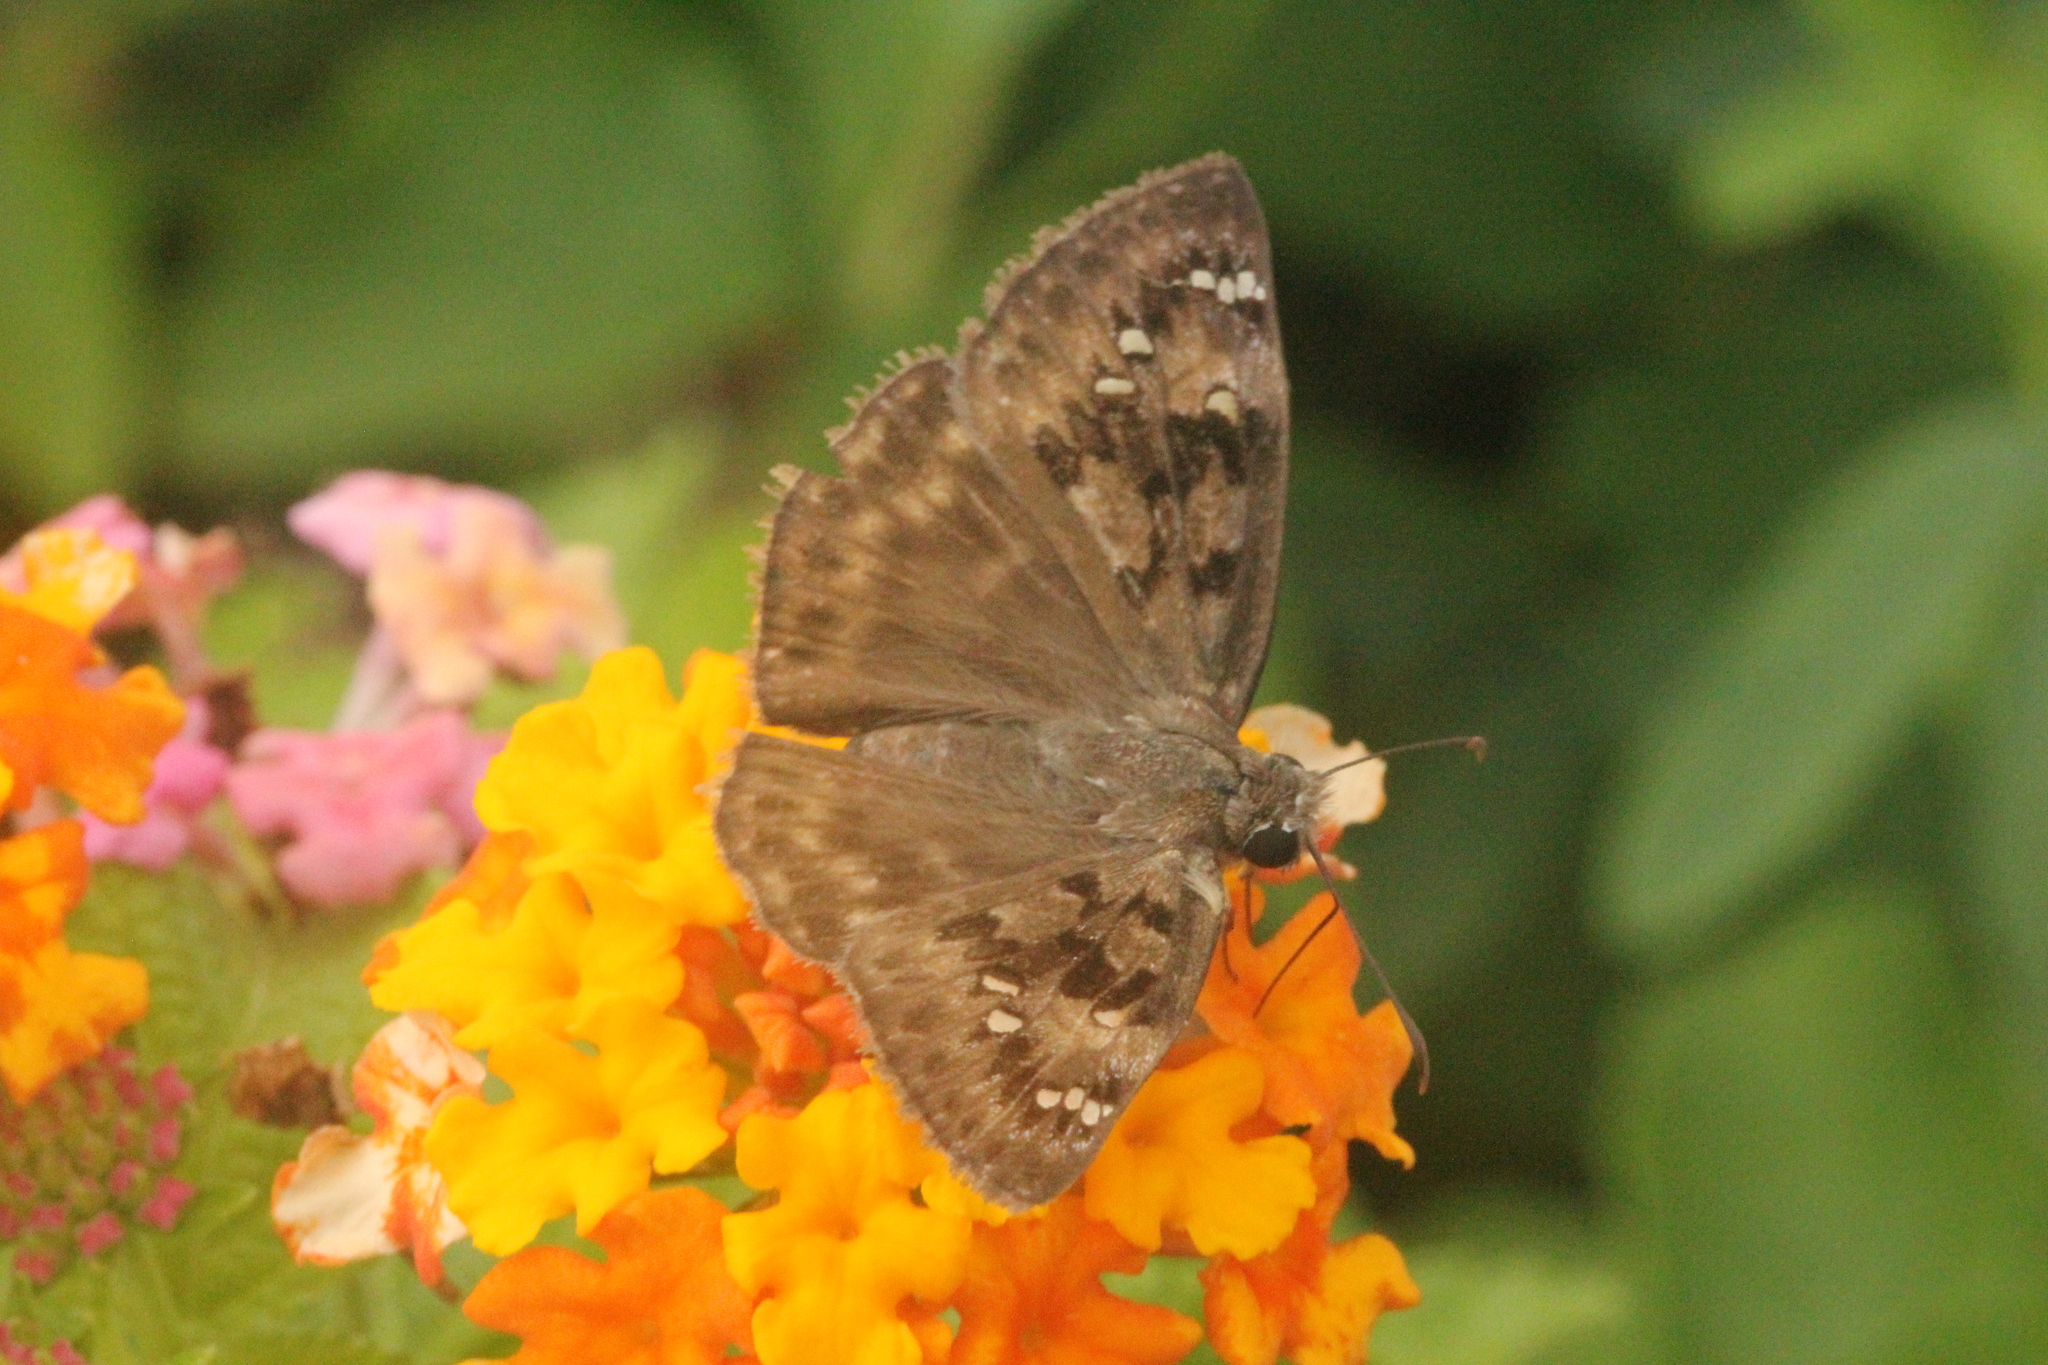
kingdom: Animalia
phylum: Arthropoda
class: Insecta
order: Lepidoptera
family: Hesperiidae
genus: Erynnis
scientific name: Erynnis horatius
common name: Horace's duskywing
